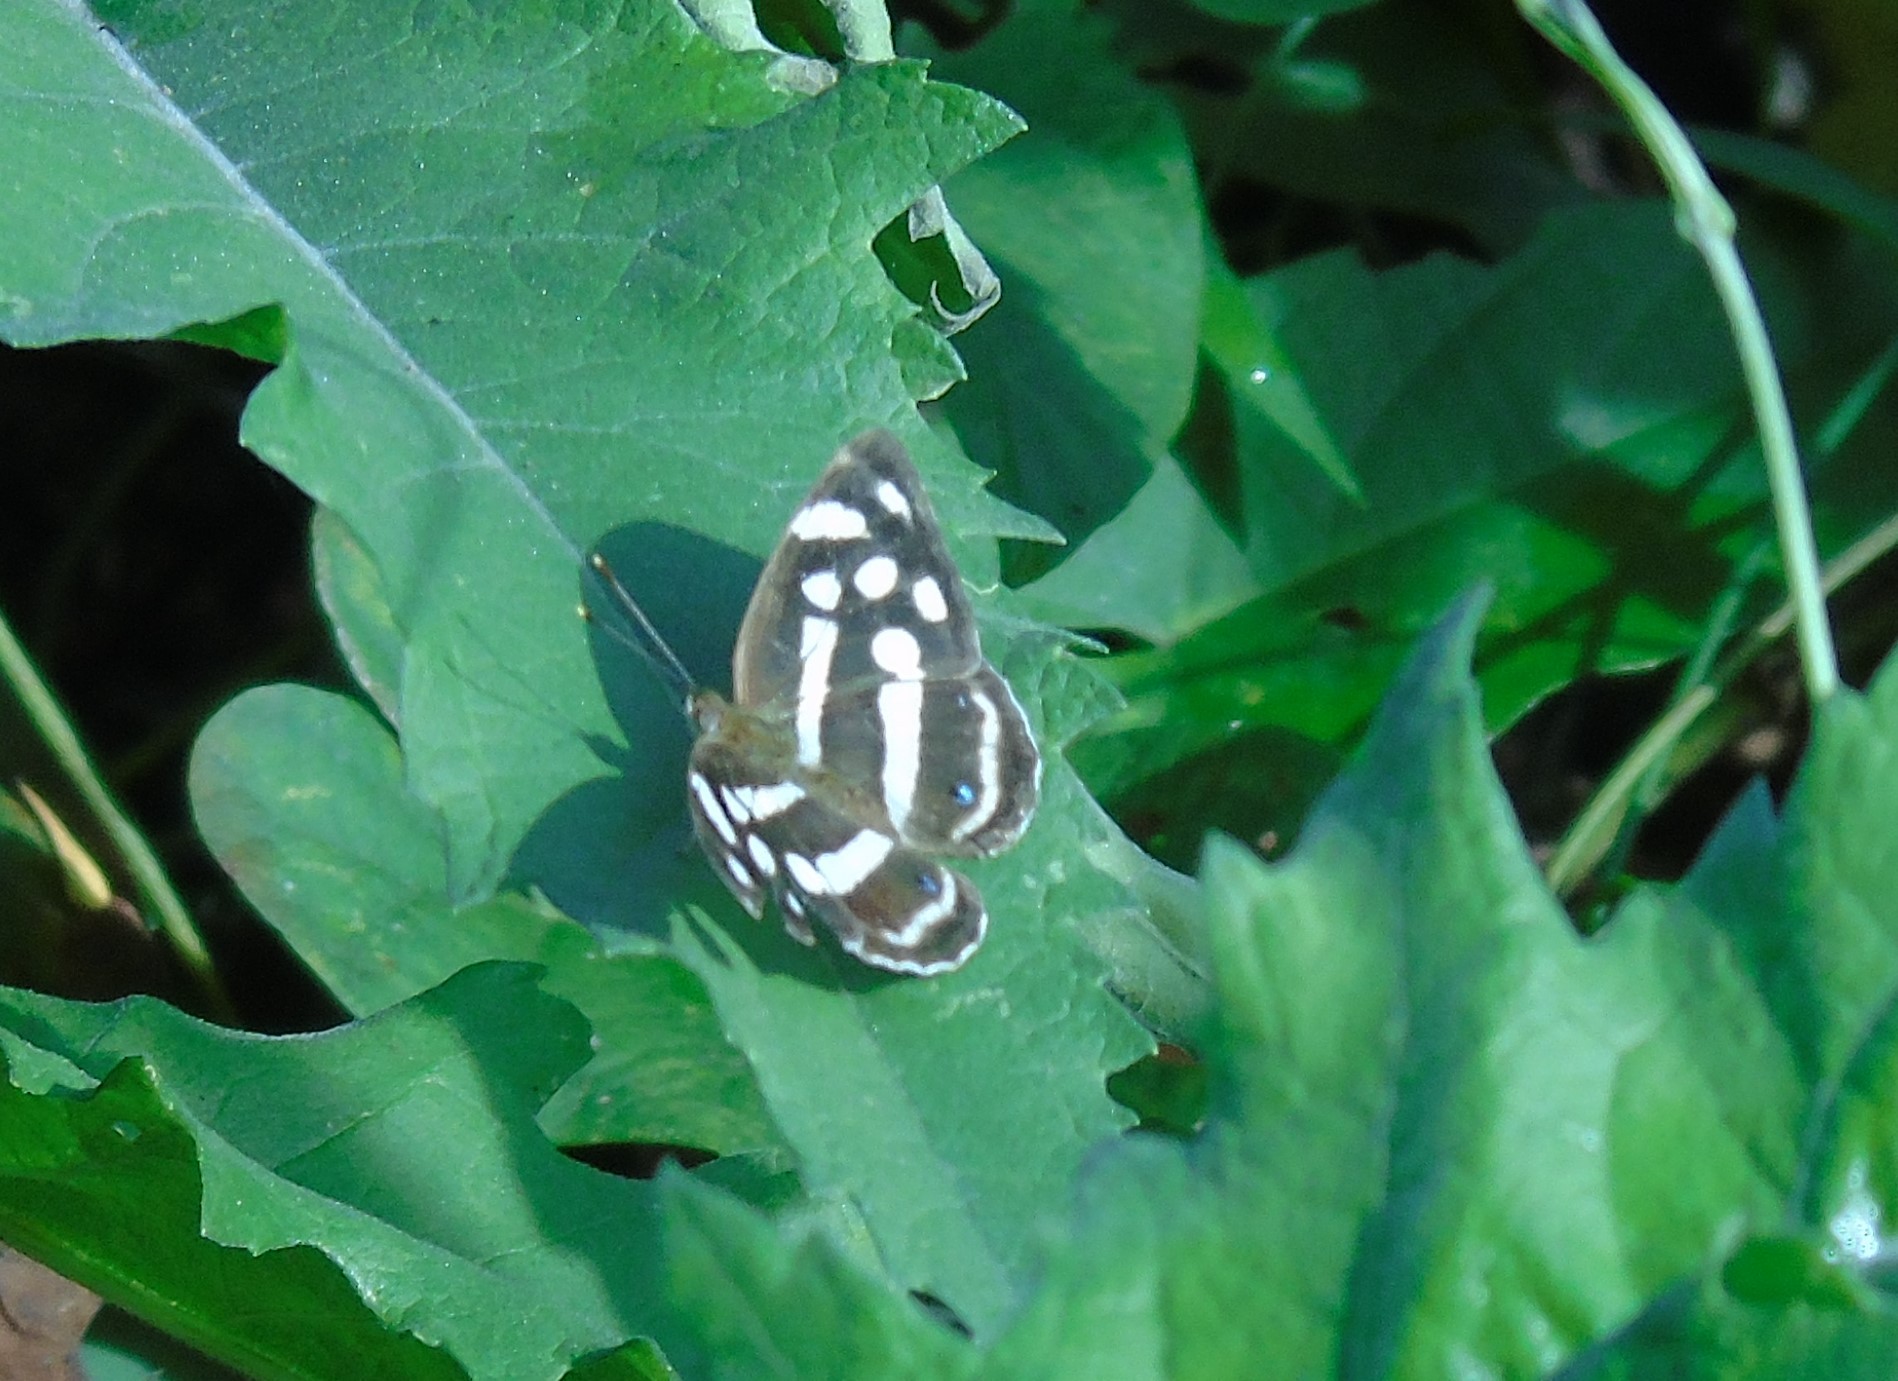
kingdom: Animalia
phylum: Arthropoda
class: Insecta
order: Lepidoptera
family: Nymphalidae
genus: Dynamine
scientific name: Dynamine mylitta
